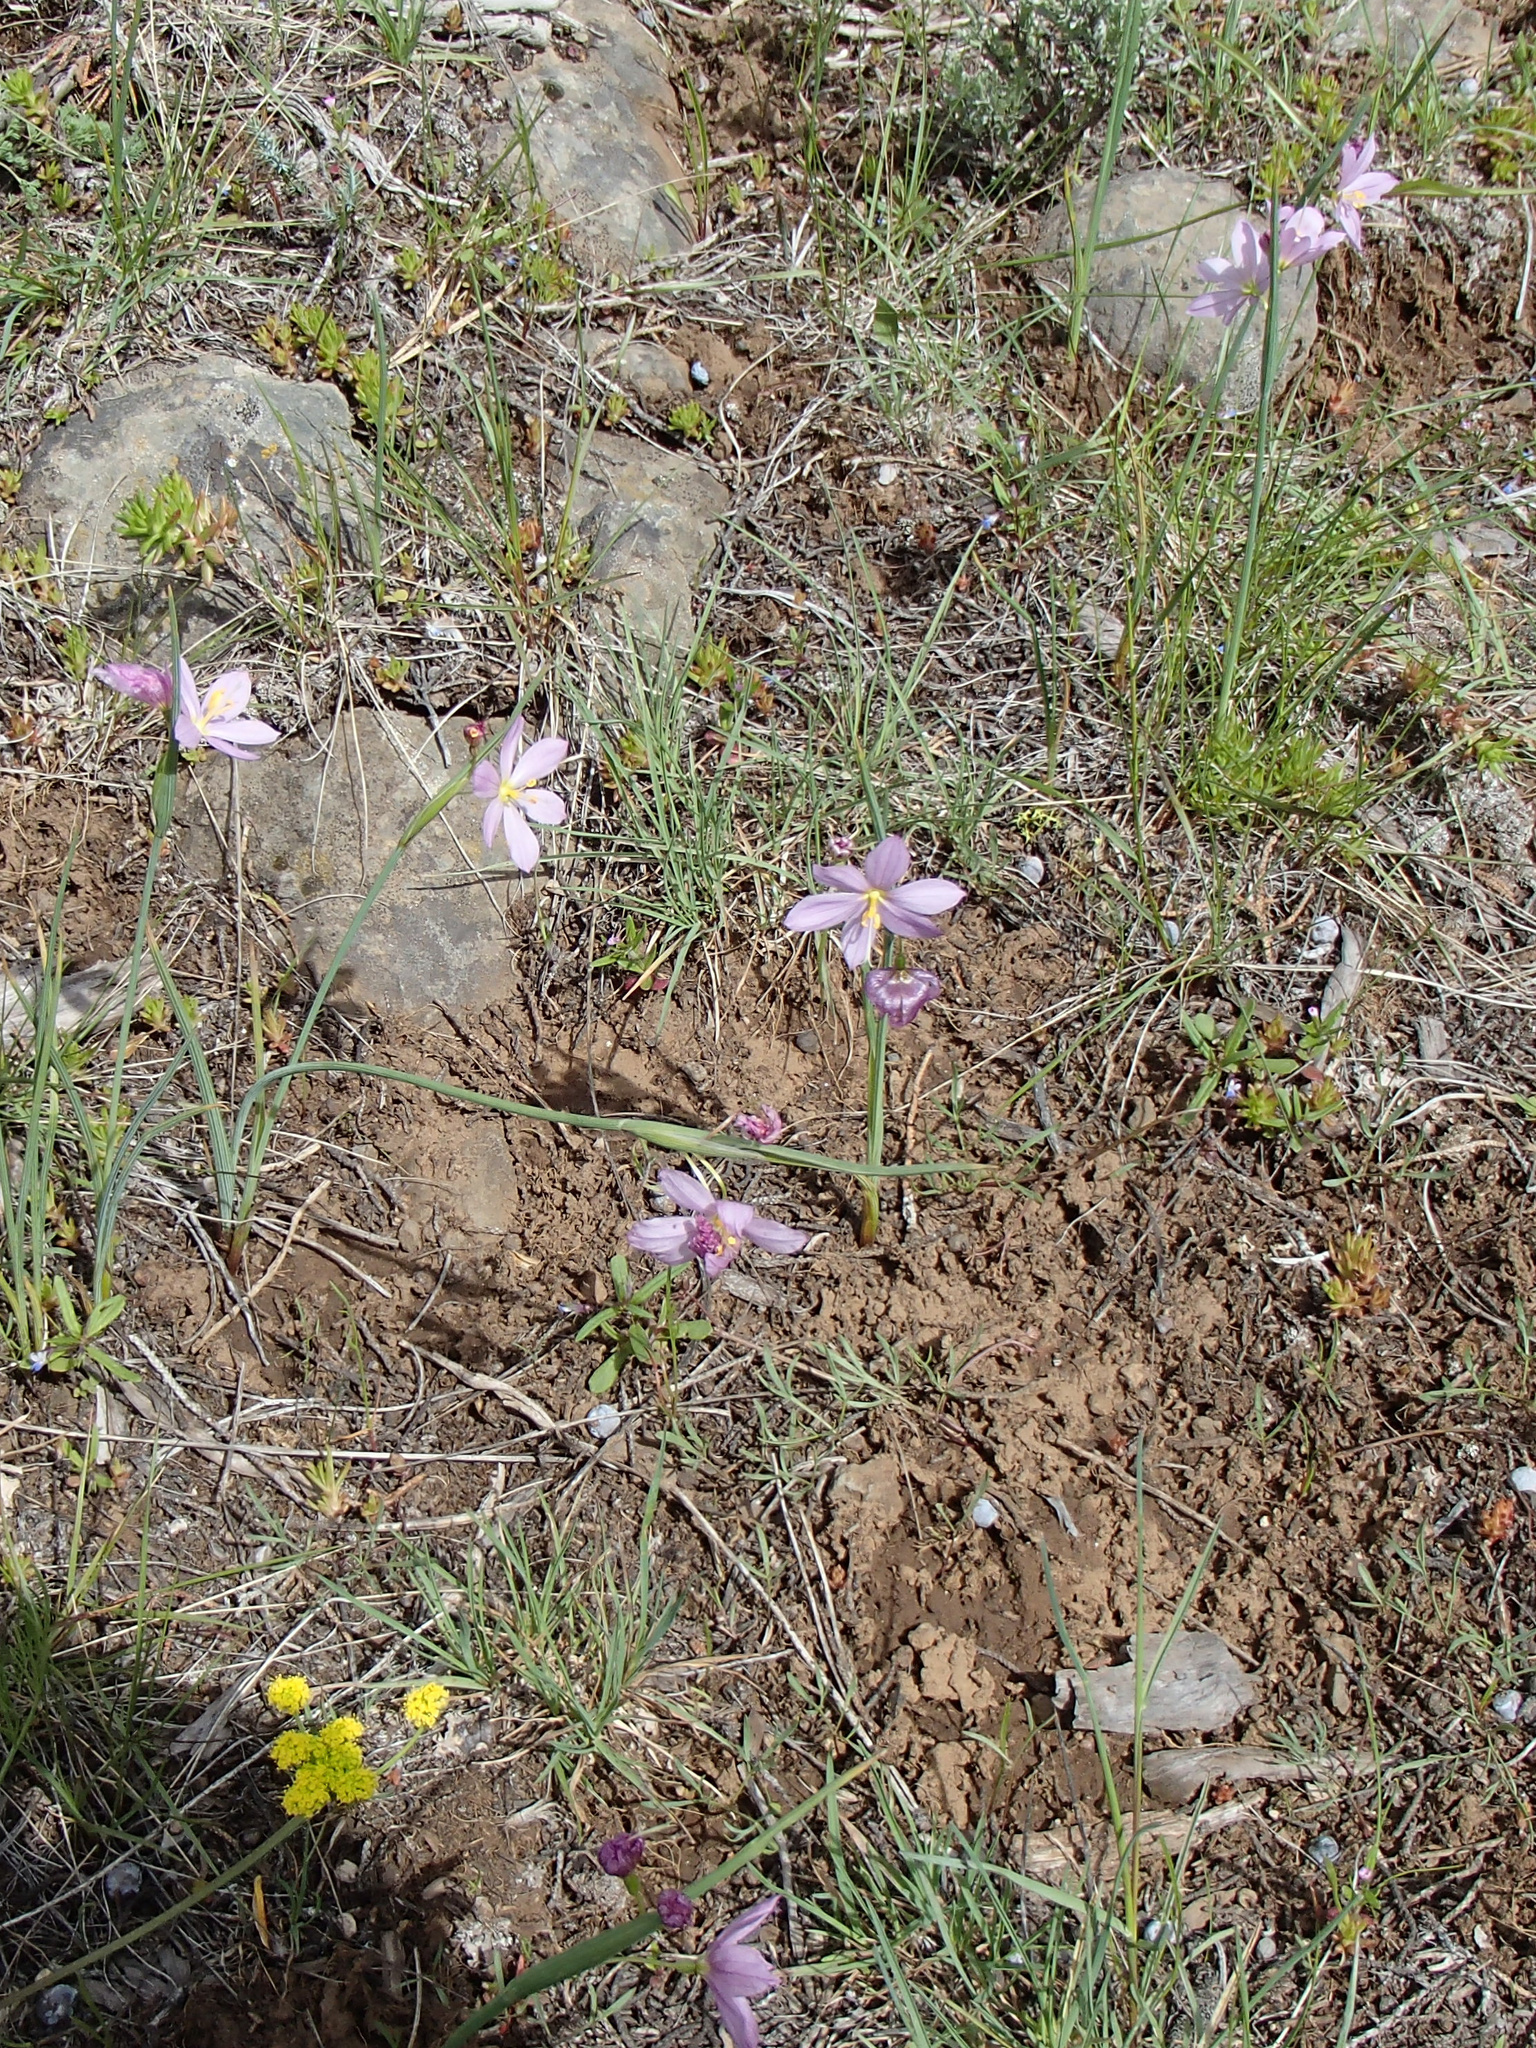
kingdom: Plantae
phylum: Tracheophyta
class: Liliopsida
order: Asparagales
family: Iridaceae
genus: Olsynium
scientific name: Olsynium douglasii
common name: Douglas' grasswidow
